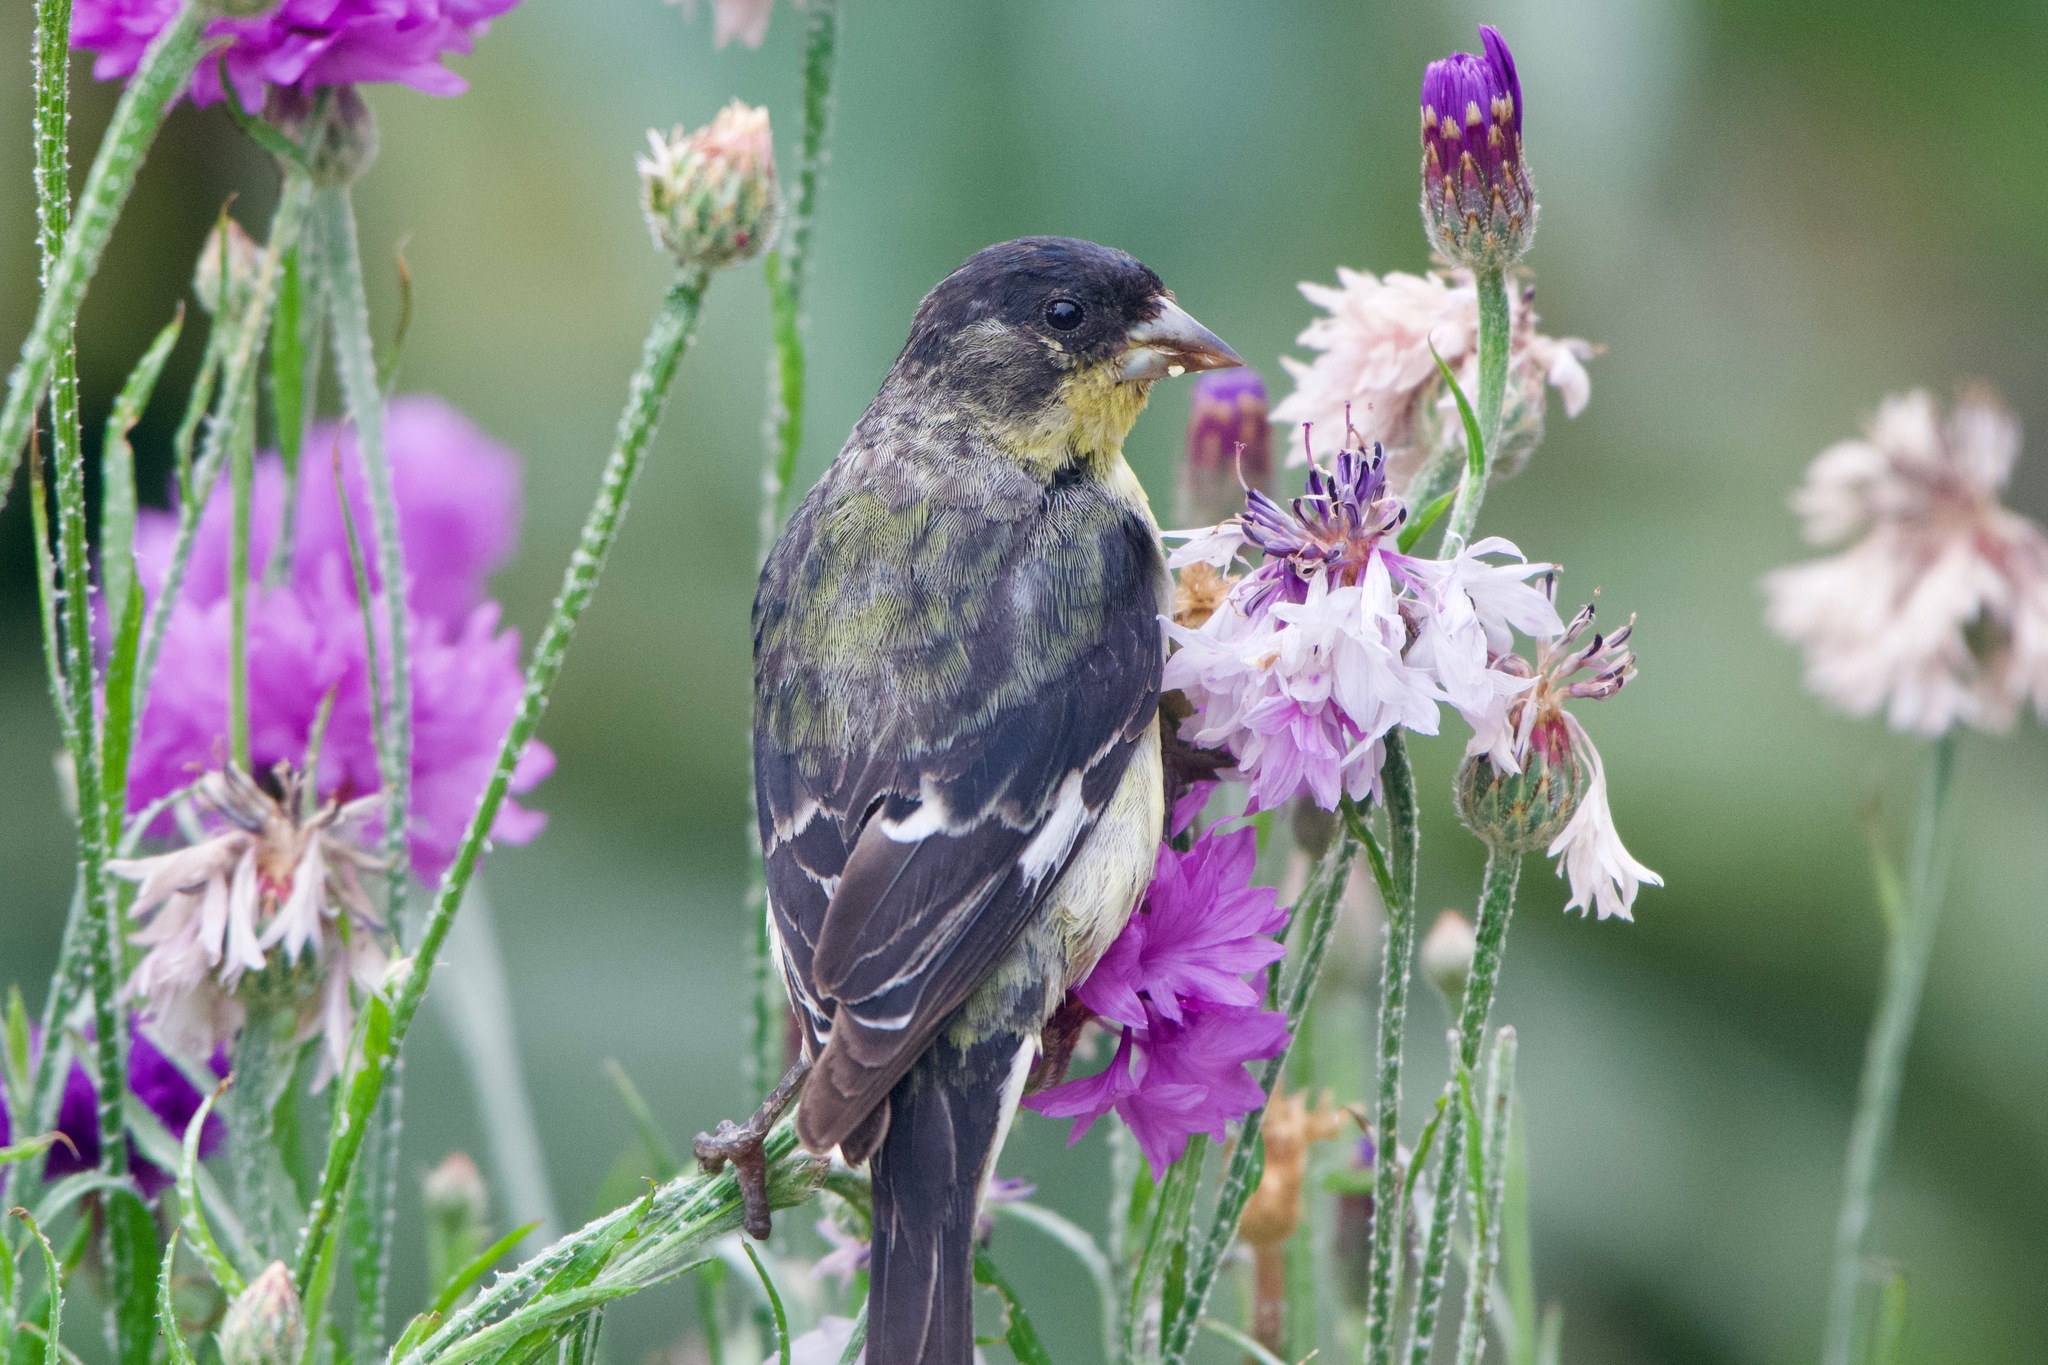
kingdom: Animalia
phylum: Chordata
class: Aves
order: Passeriformes
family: Fringillidae
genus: Spinus
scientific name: Spinus psaltria
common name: Lesser goldfinch
